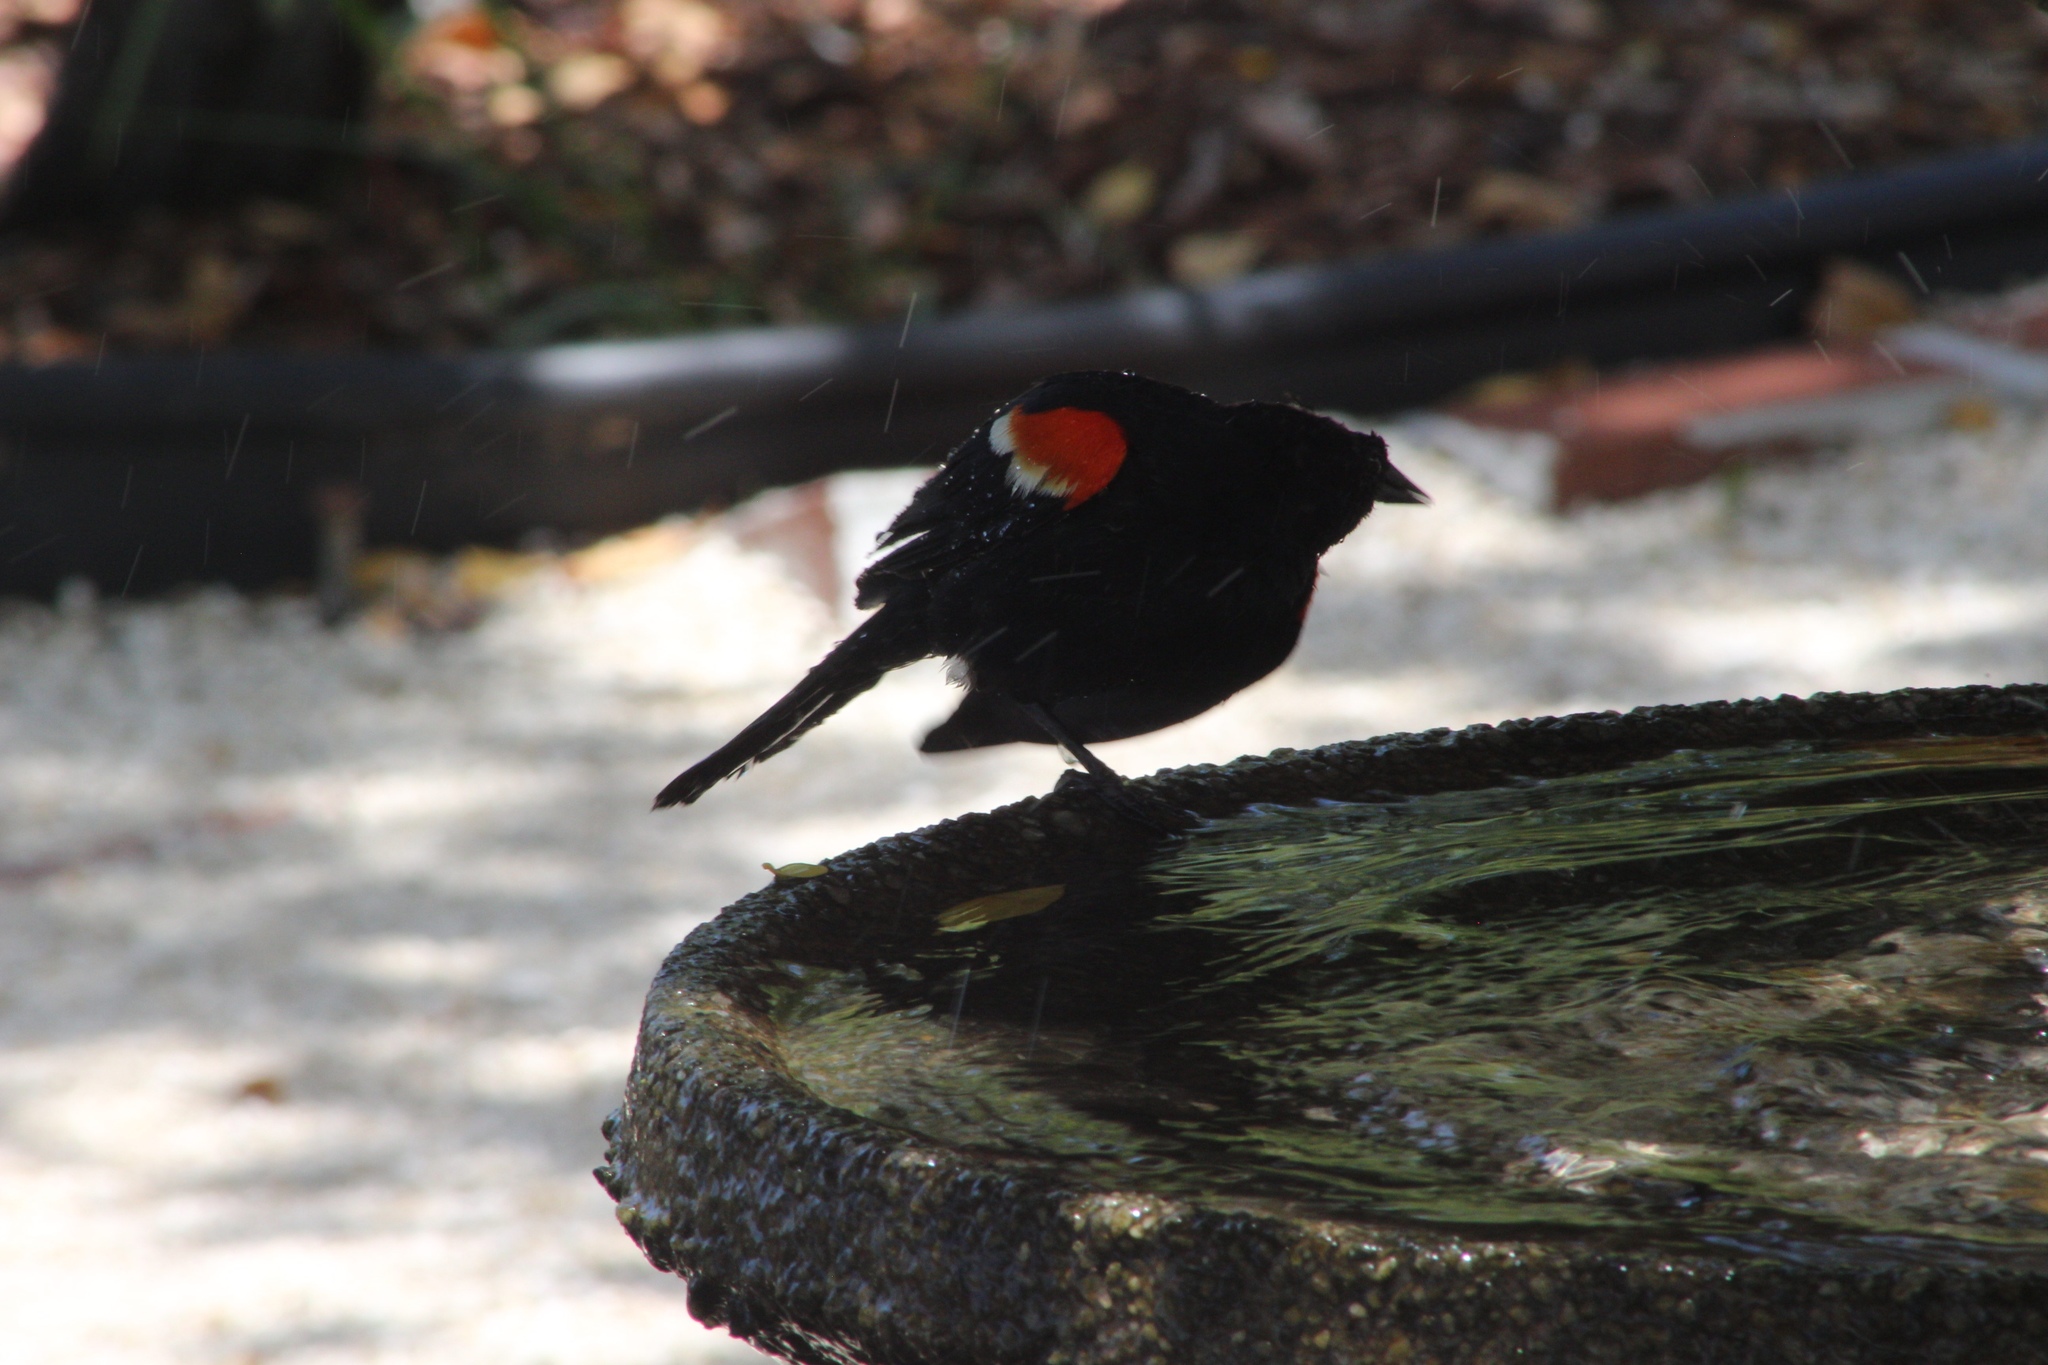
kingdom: Animalia
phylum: Chordata
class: Aves
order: Passeriformes
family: Icteridae
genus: Agelaius
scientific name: Agelaius phoeniceus
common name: Red-winged blackbird
